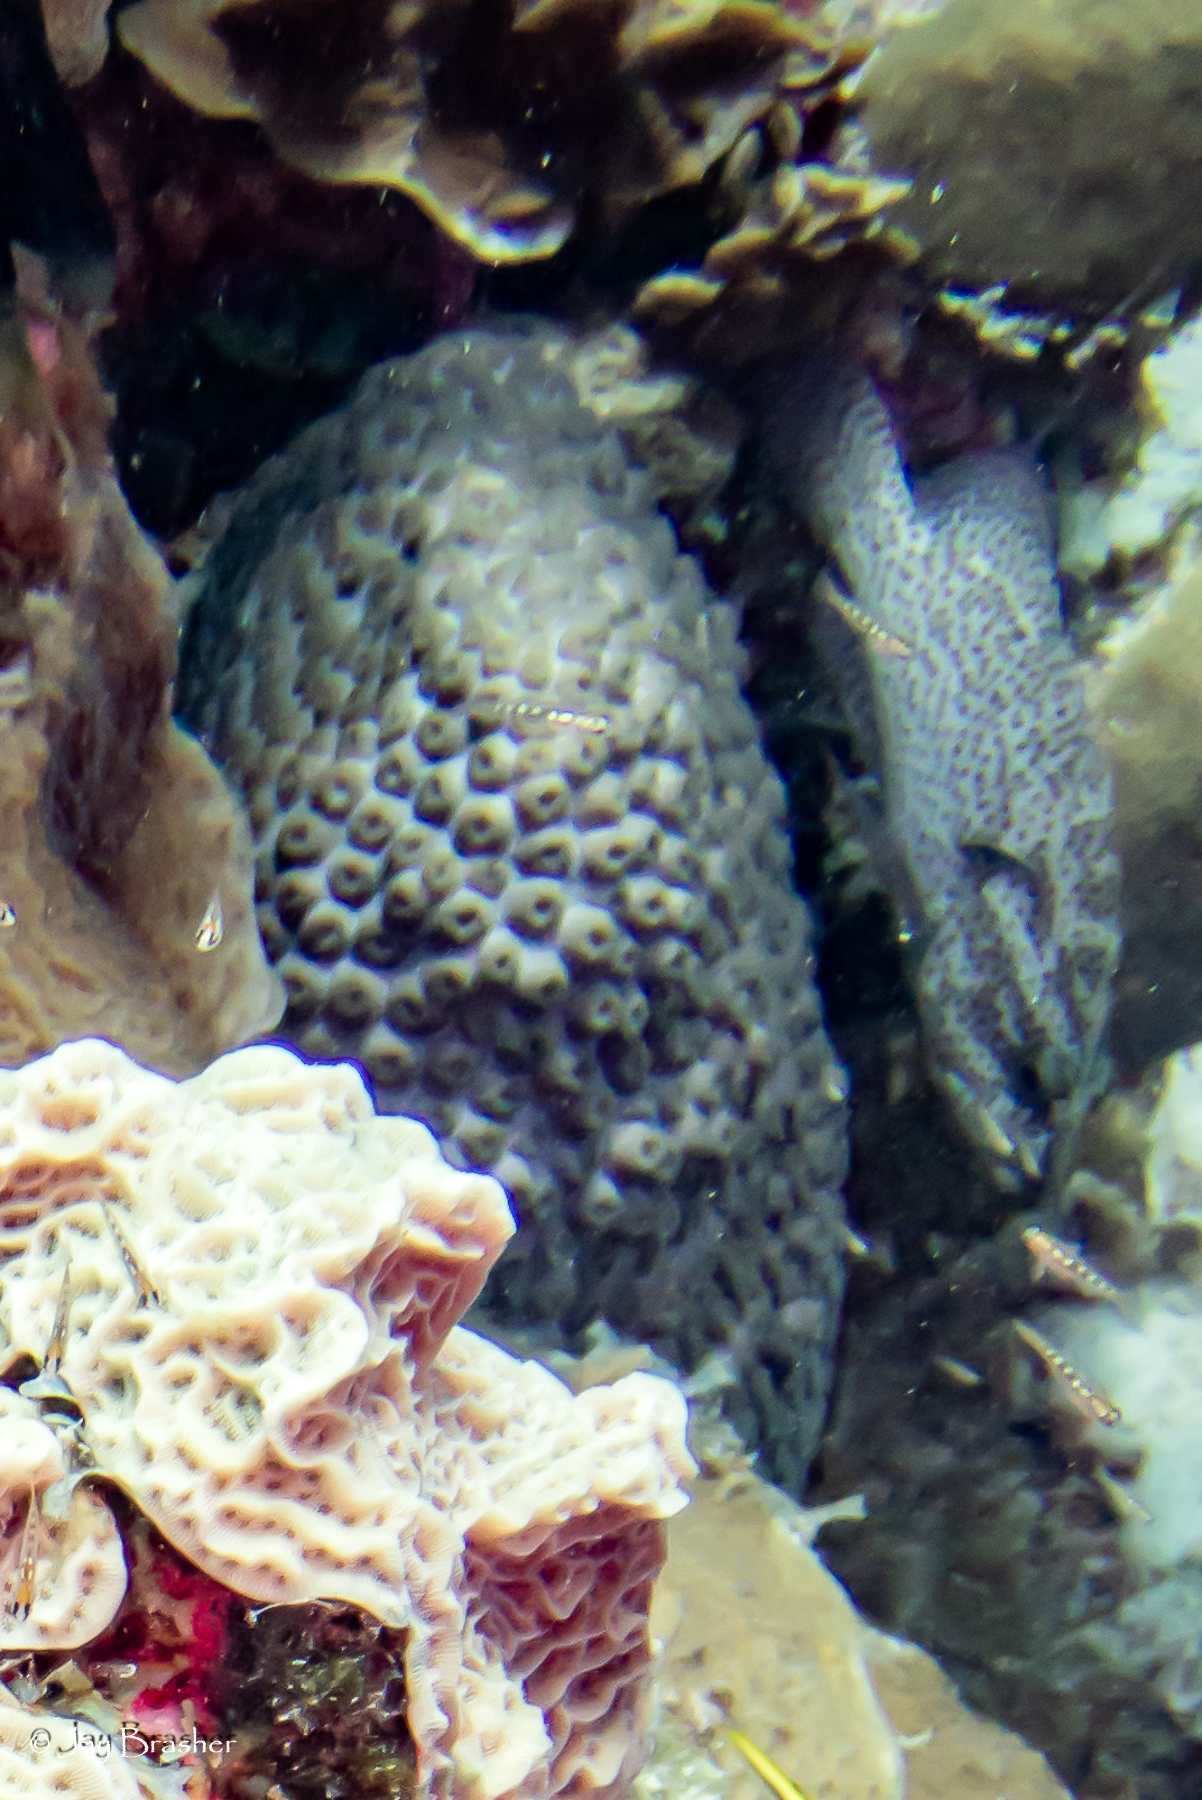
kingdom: Animalia
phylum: Chordata
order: Perciformes
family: Serranidae
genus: Cephalopholis
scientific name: Cephalopholis cruentata
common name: Graysby
